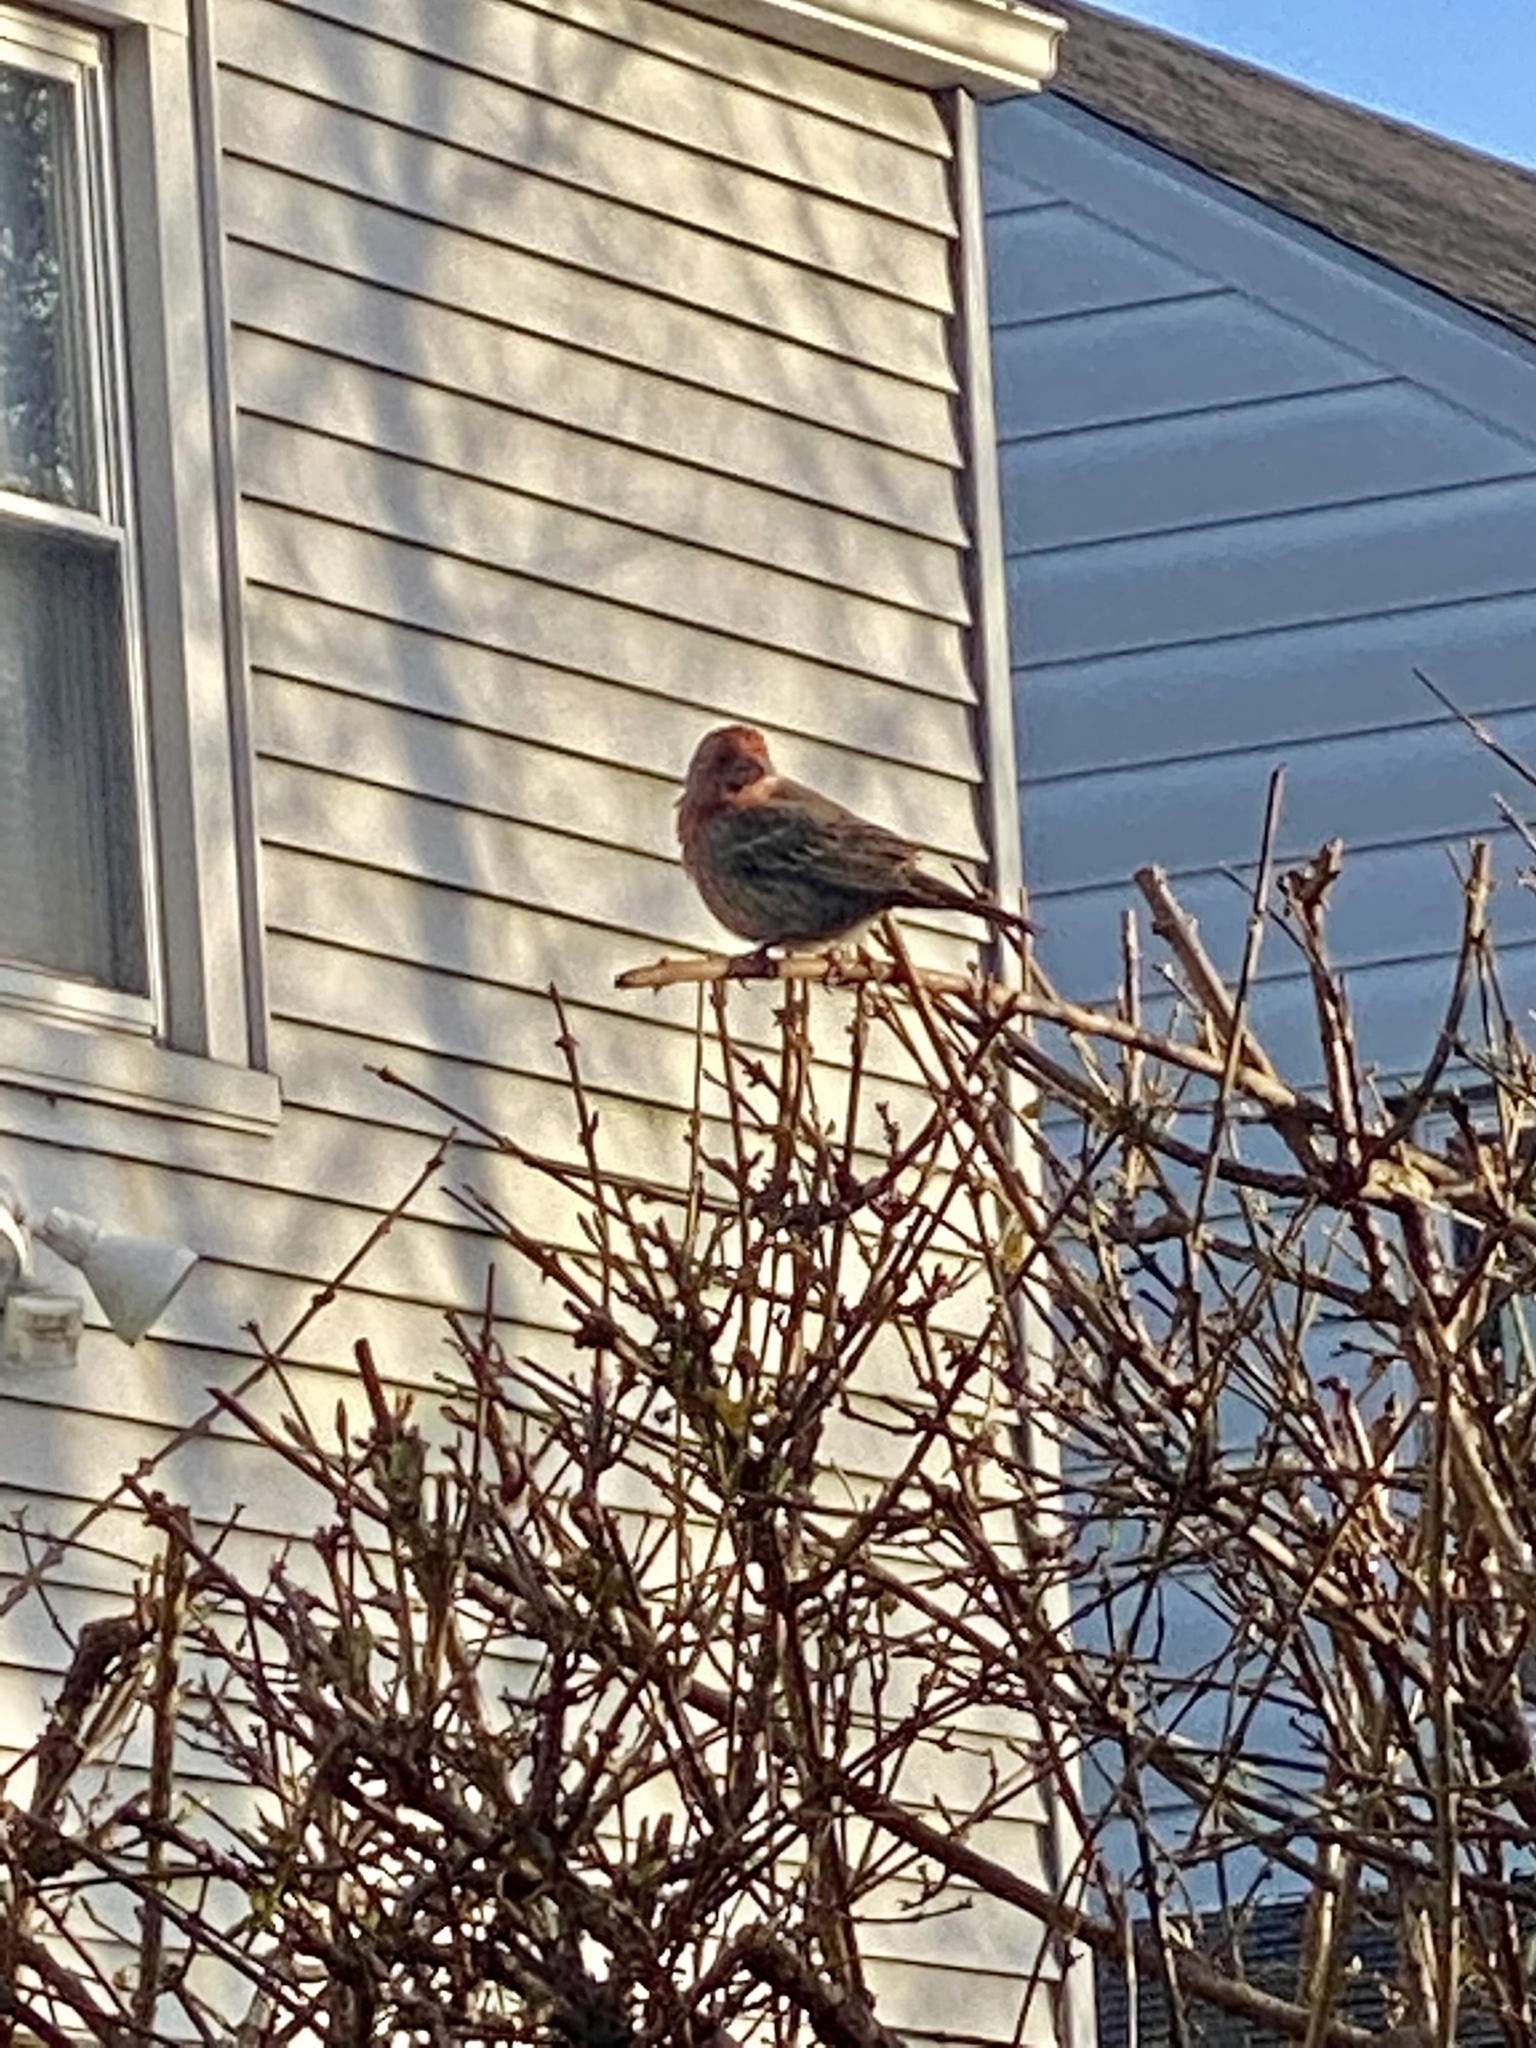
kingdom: Animalia
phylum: Chordata
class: Aves
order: Passeriformes
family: Fringillidae
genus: Haemorhous
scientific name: Haemorhous mexicanus
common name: House finch
